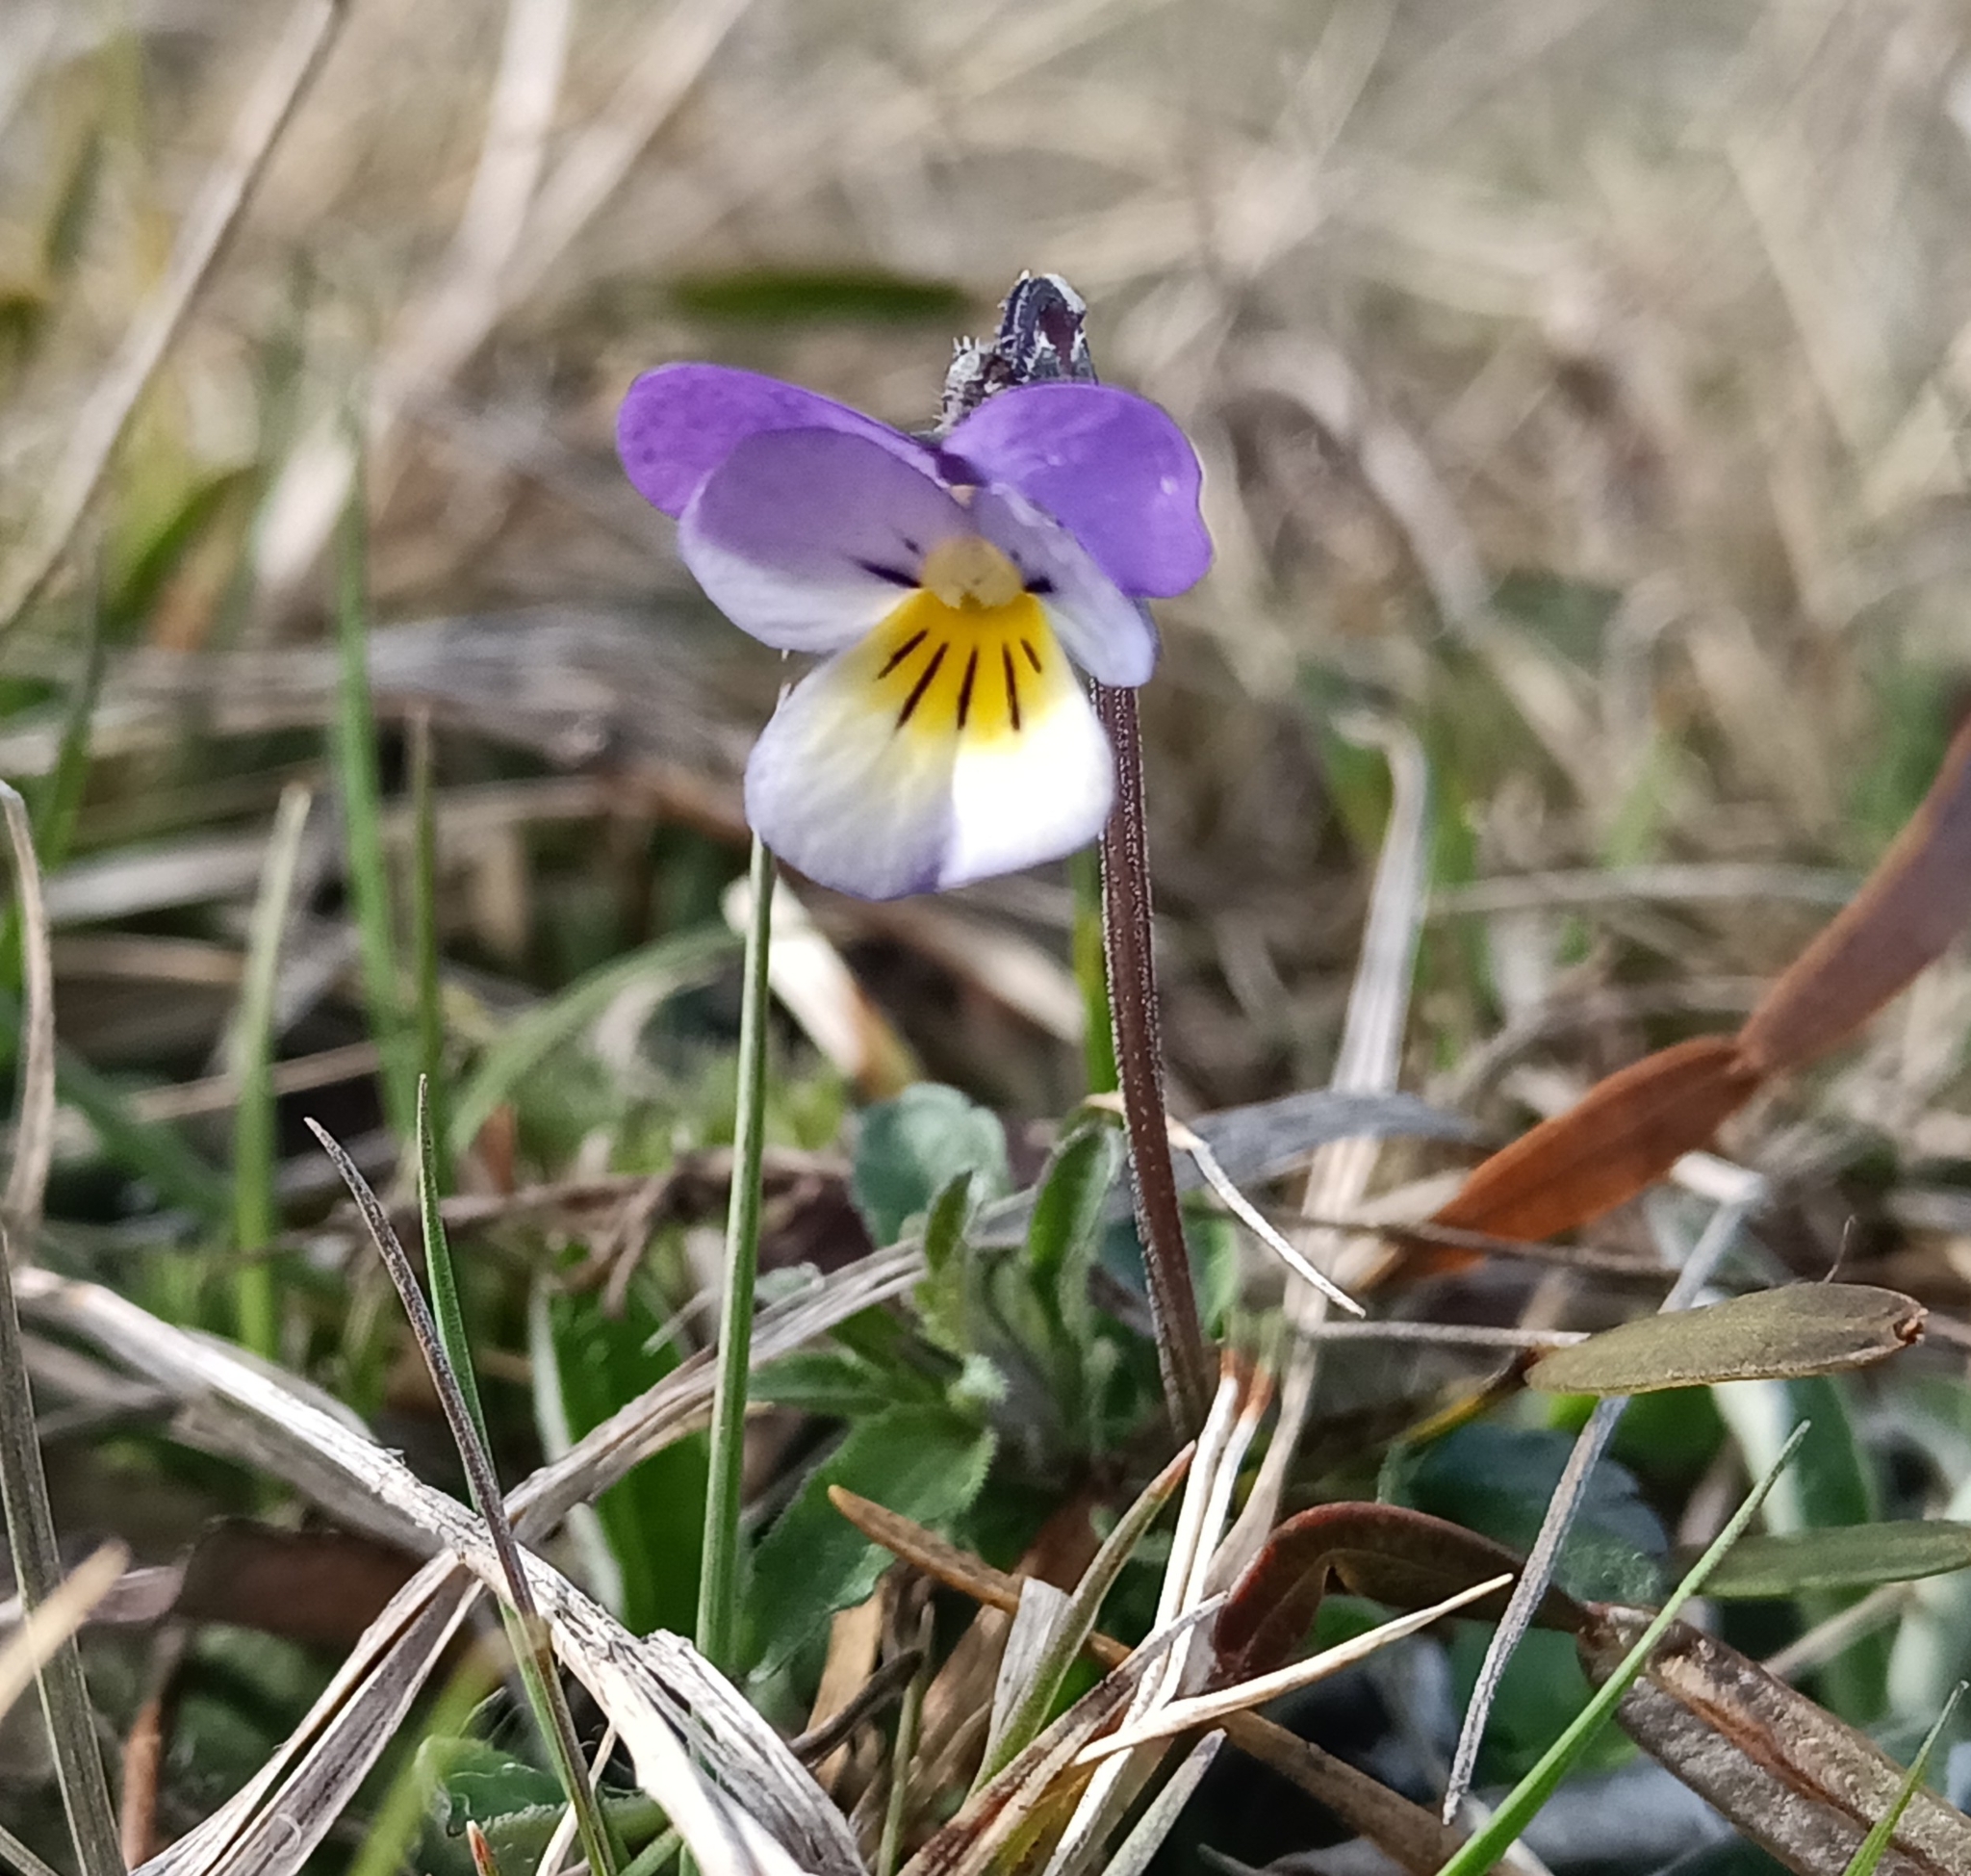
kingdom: Plantae
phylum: Tracheophyta
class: Magnoliopsida
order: Malpighiales
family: Violaceae
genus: Viola
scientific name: Viola tricolor
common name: Pansy
